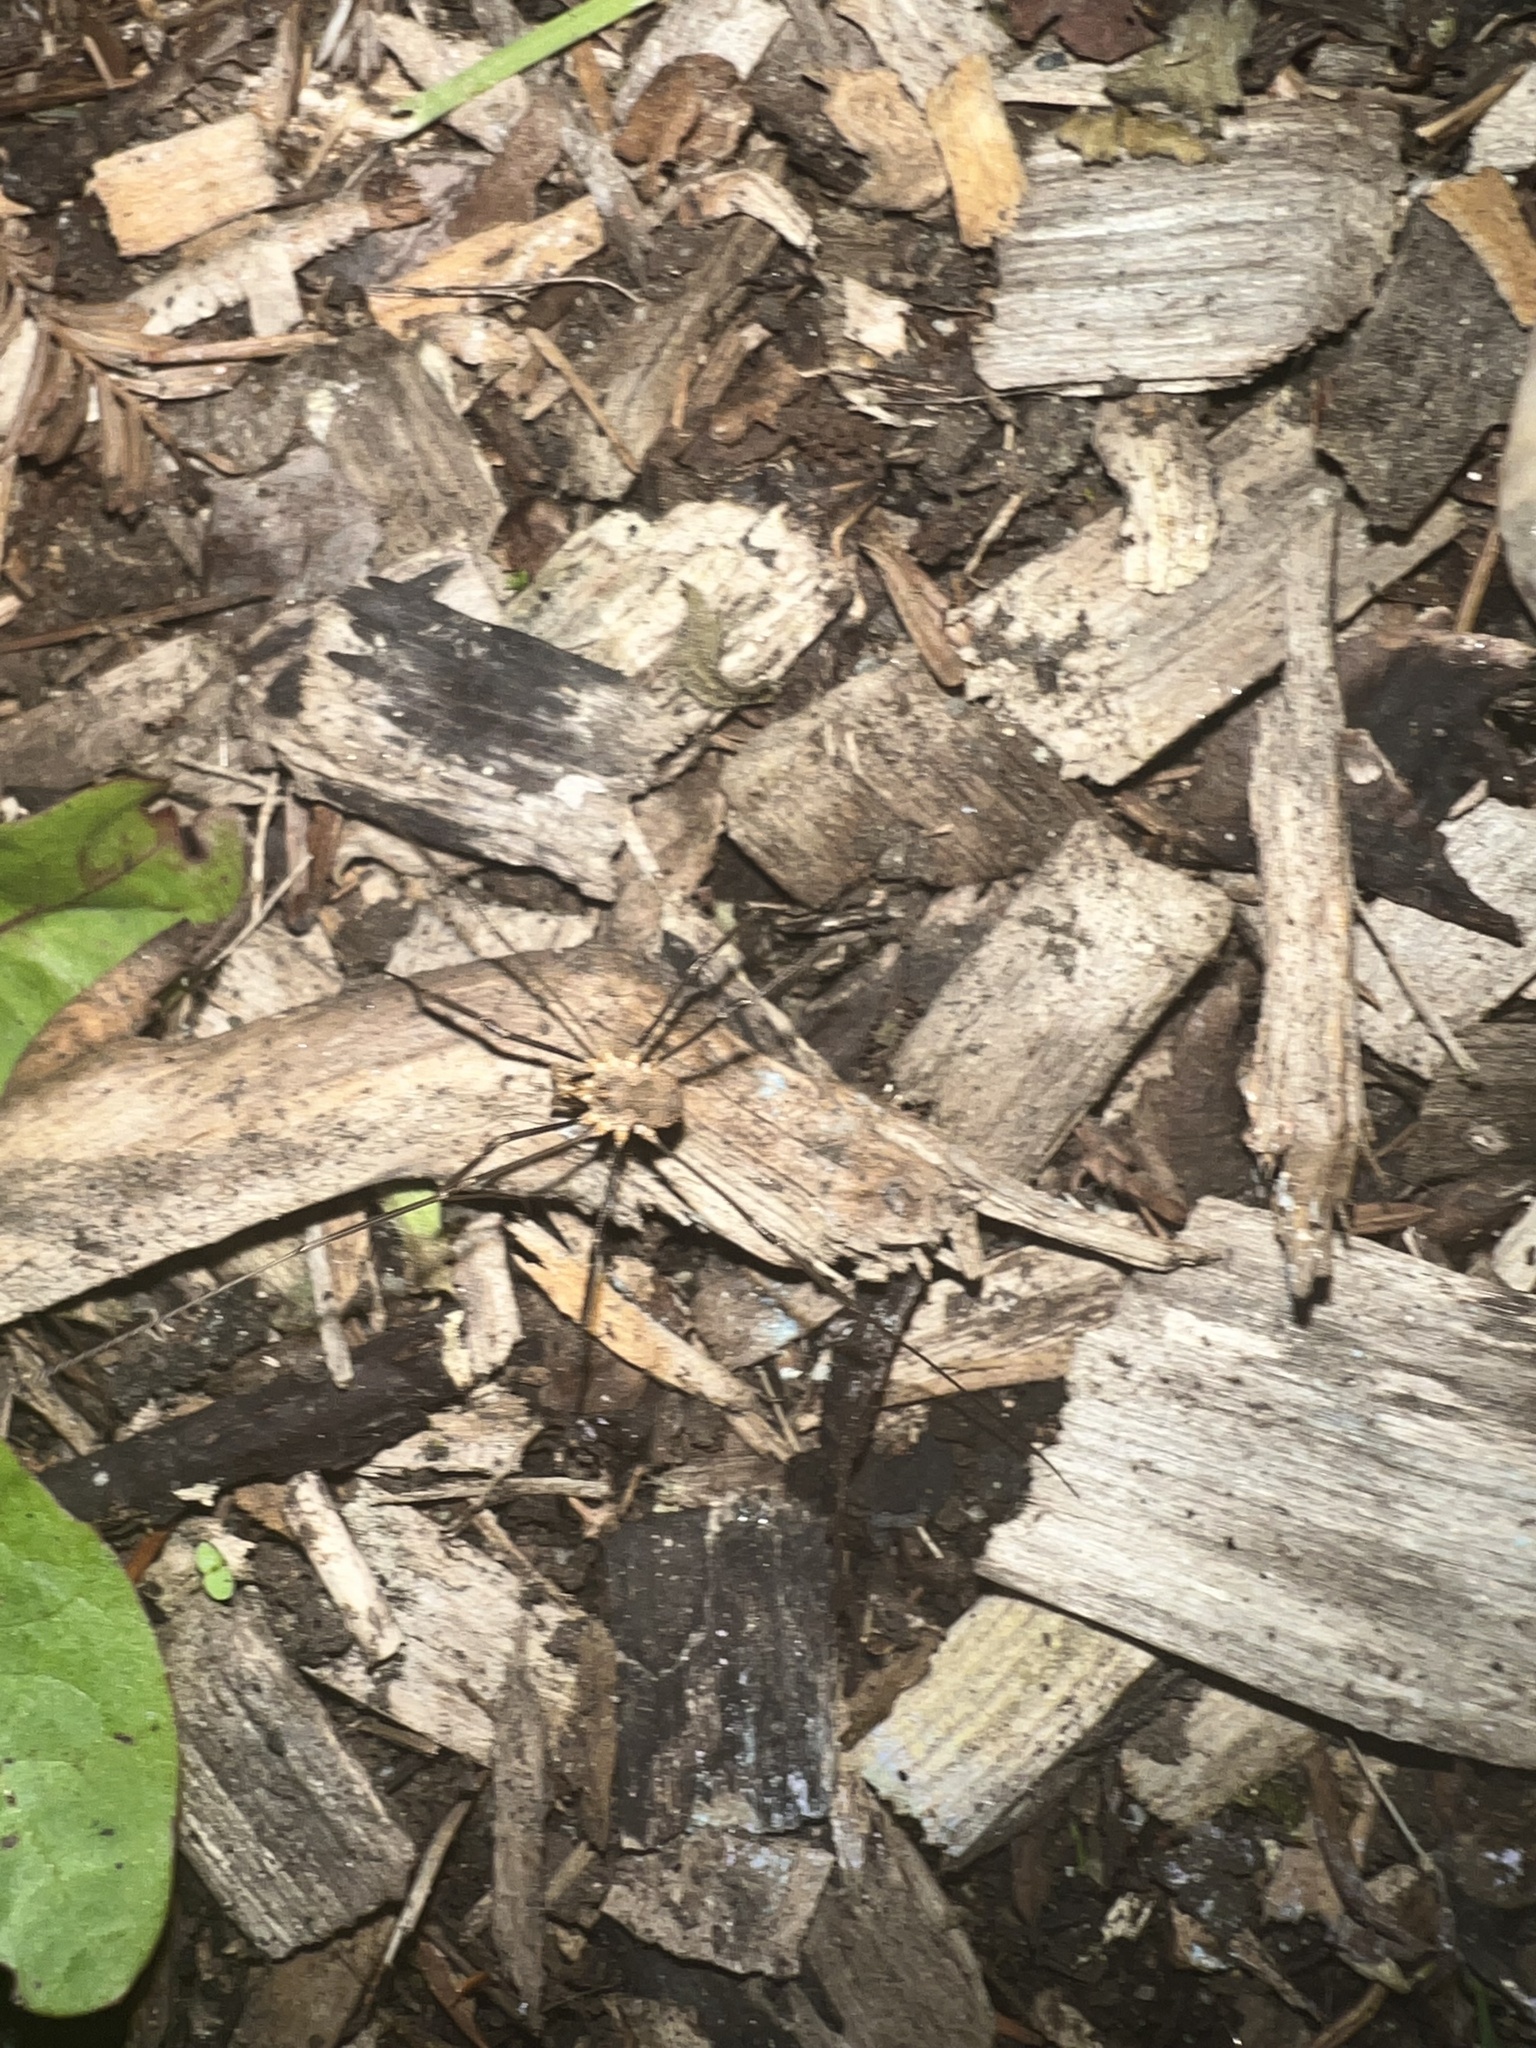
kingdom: Animalia
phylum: Arthropoda
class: Arachnida
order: Opiliones
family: Phalangiidae
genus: Phalangium
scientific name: Phalangium opilio
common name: Daddy longleg
